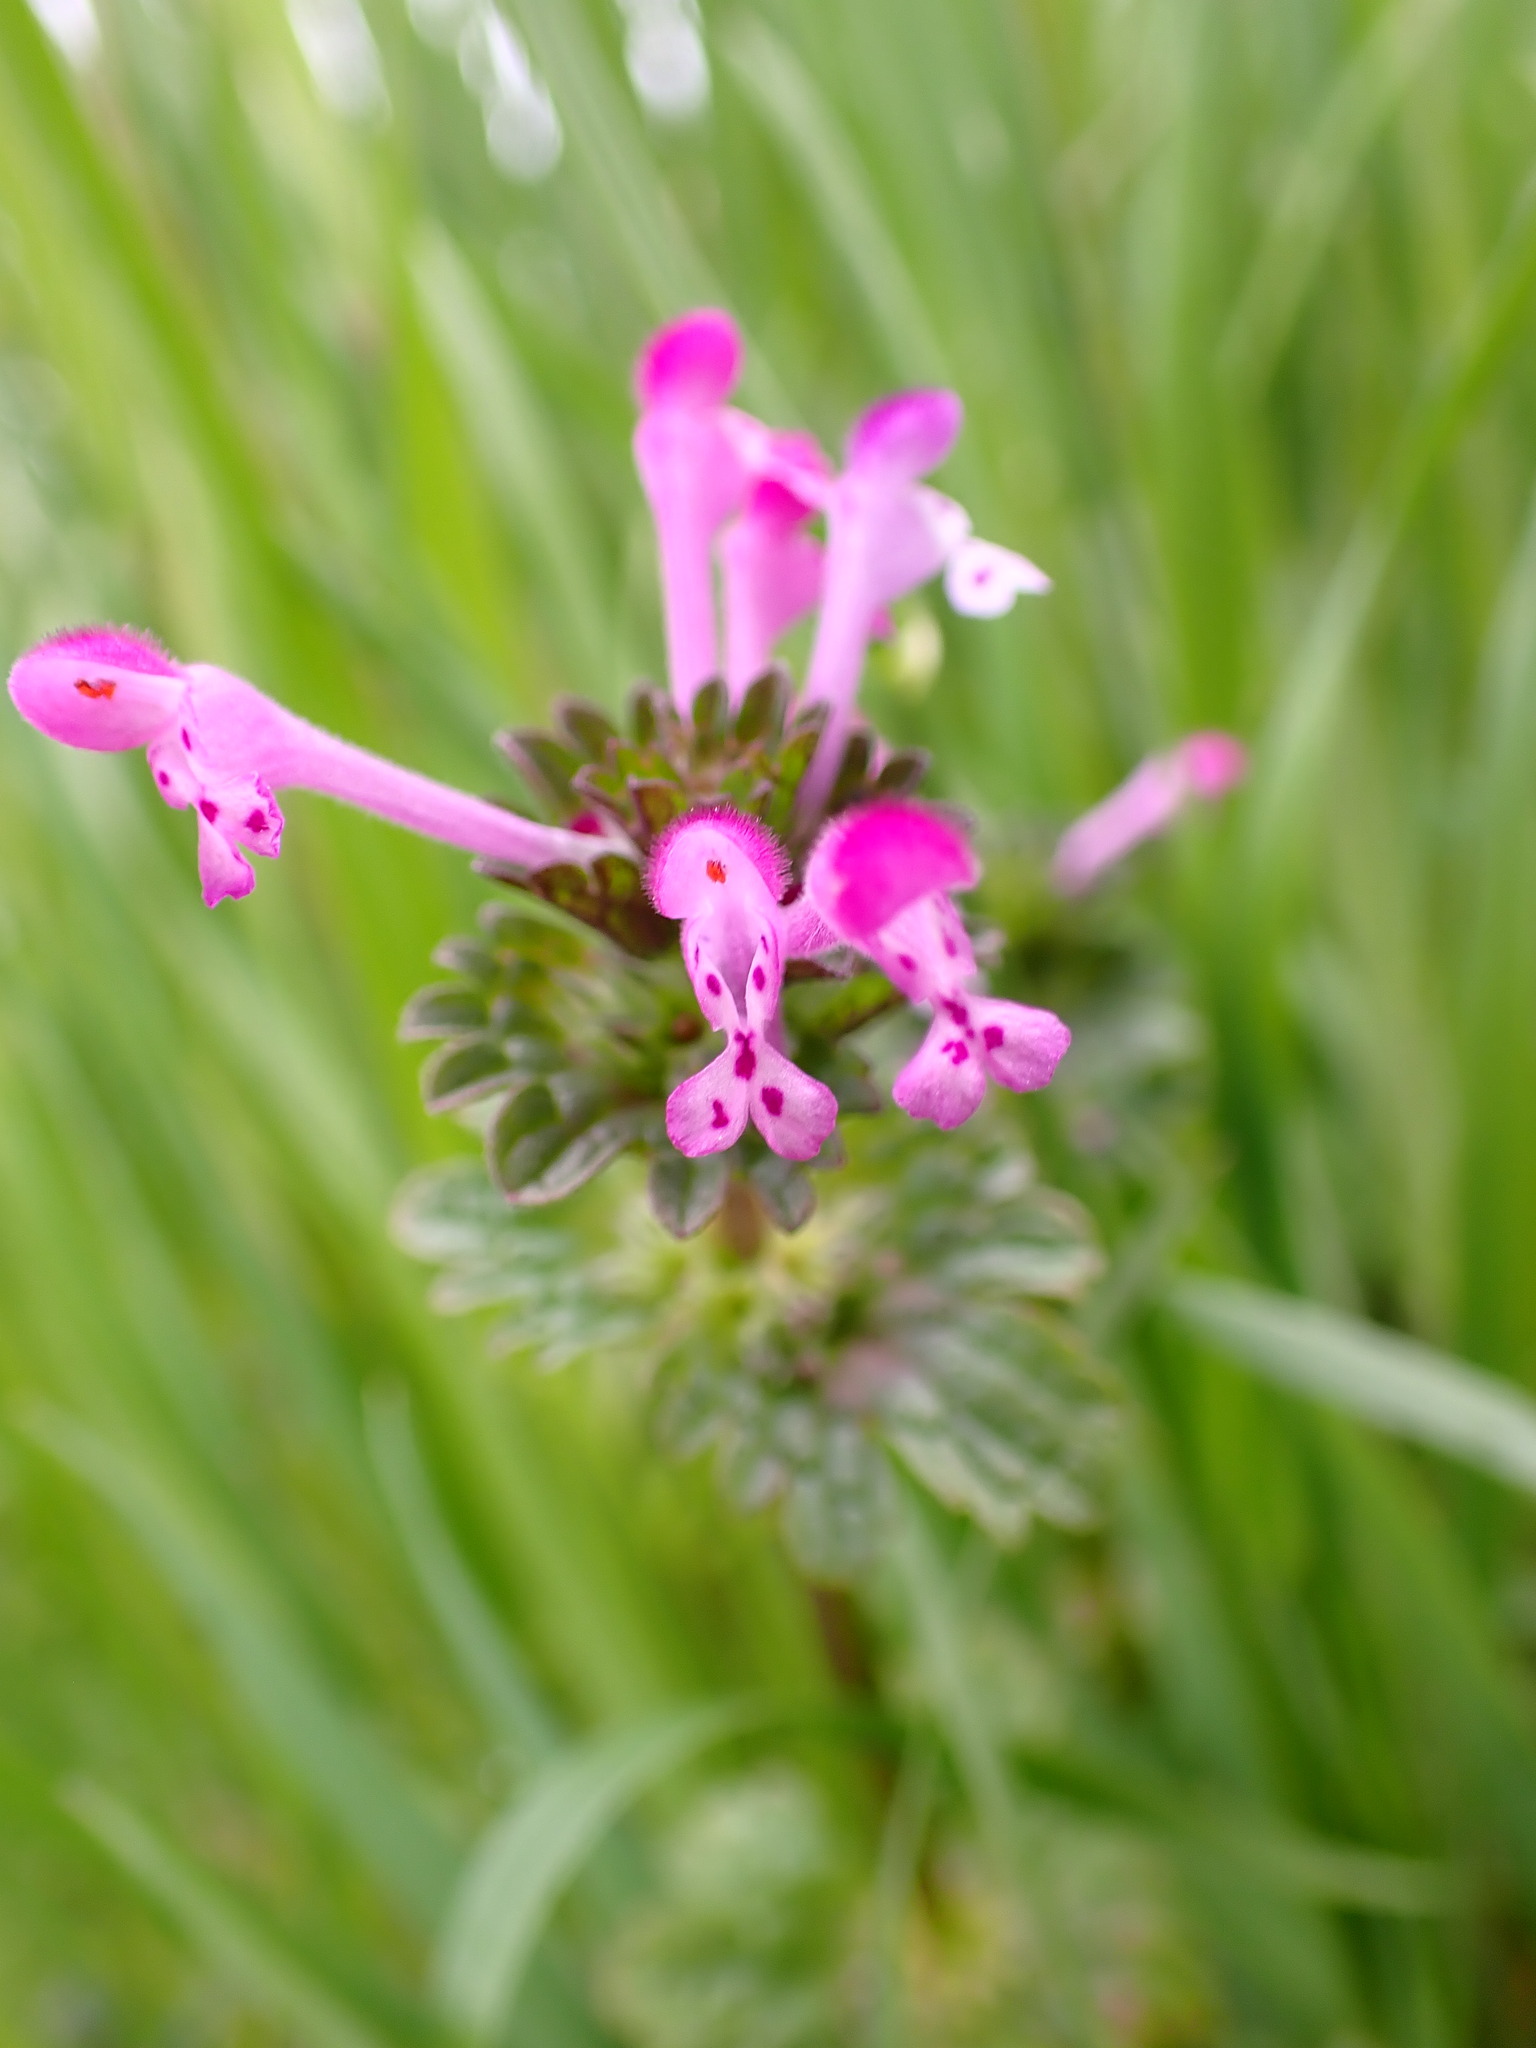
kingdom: Plantae
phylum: Tracheophyta
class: Magnoliopsida
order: Lamiales
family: Lamiaceae
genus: Lamium
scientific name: Lamium amplexicaule
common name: Henbit dead-nettle
